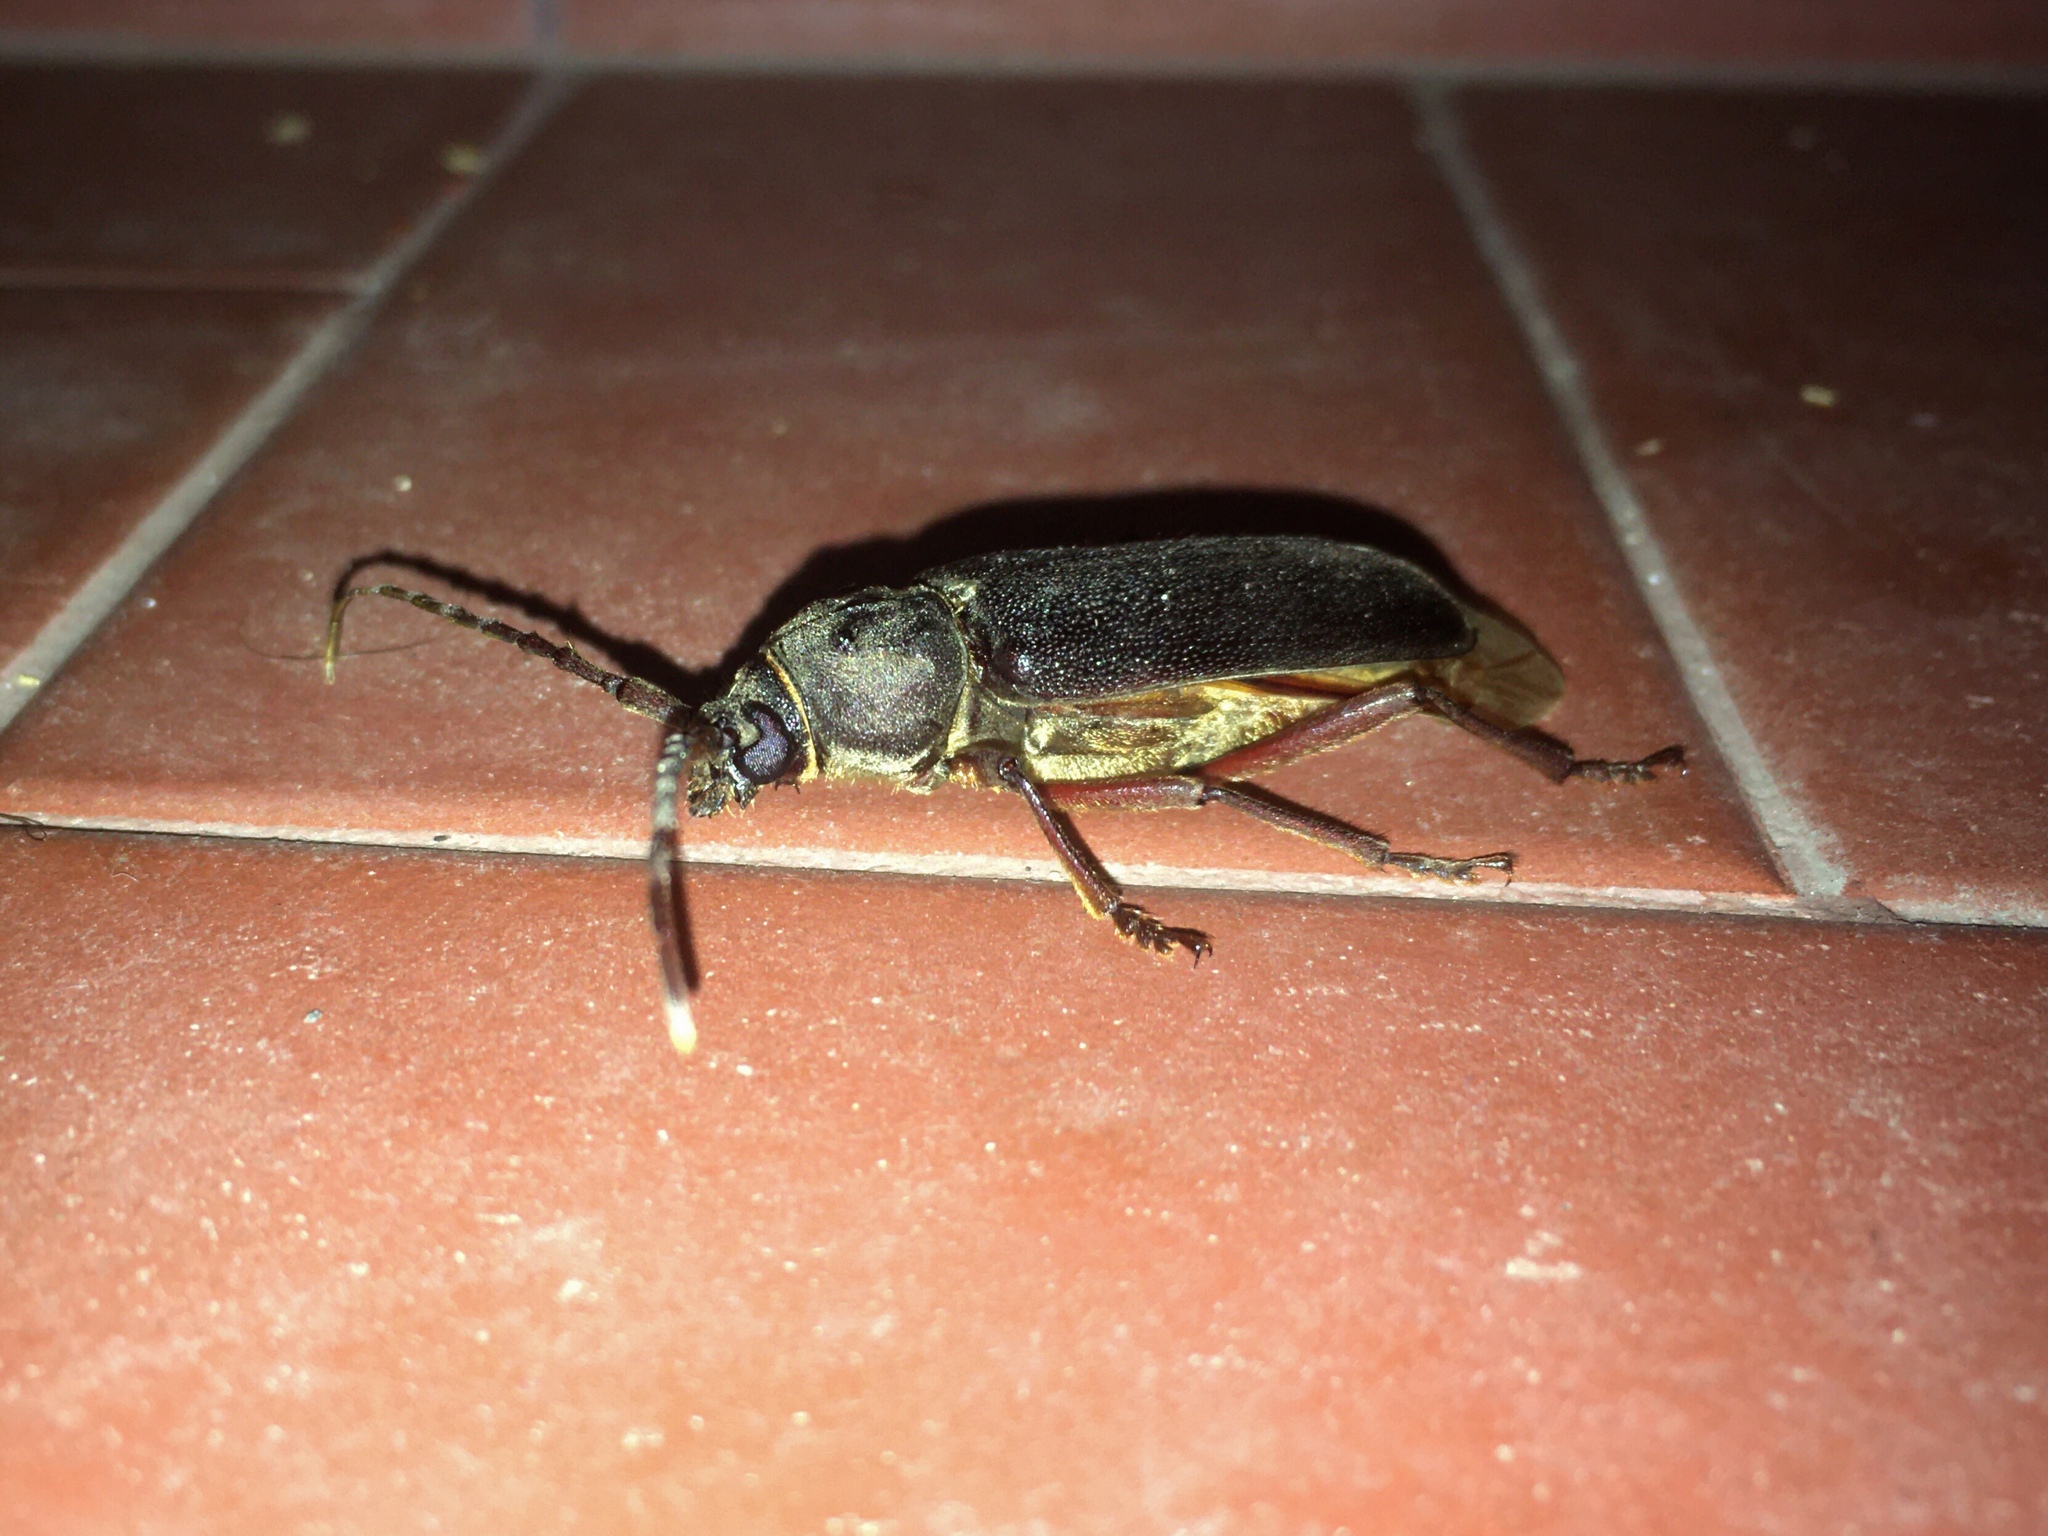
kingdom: Animalia
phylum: Arthropoda
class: Insecta
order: Coleoptera
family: Cerambycidae
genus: Orion
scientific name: Orion maurus
